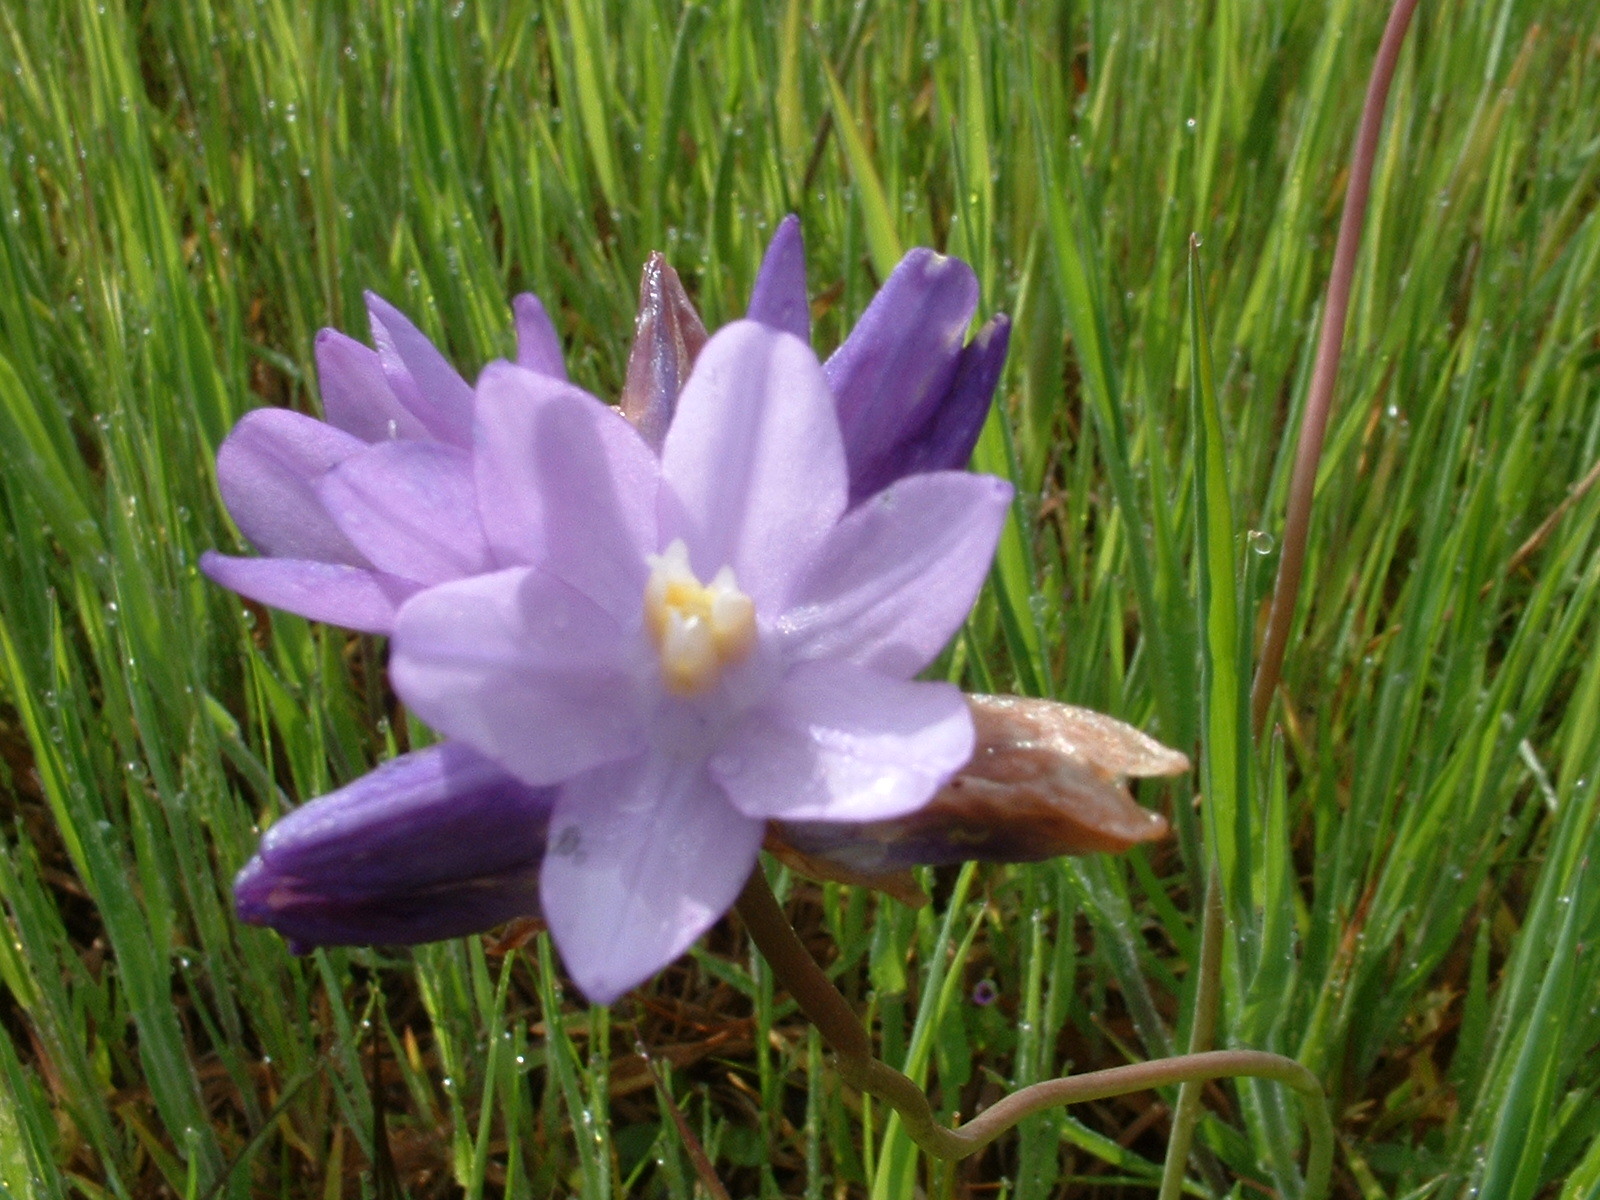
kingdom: Plantae
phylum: Tracheophyta
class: Liliopsida
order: Asparagales
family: Asparagaceae
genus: Dipterostemon
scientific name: Dipterostemon capitatus
